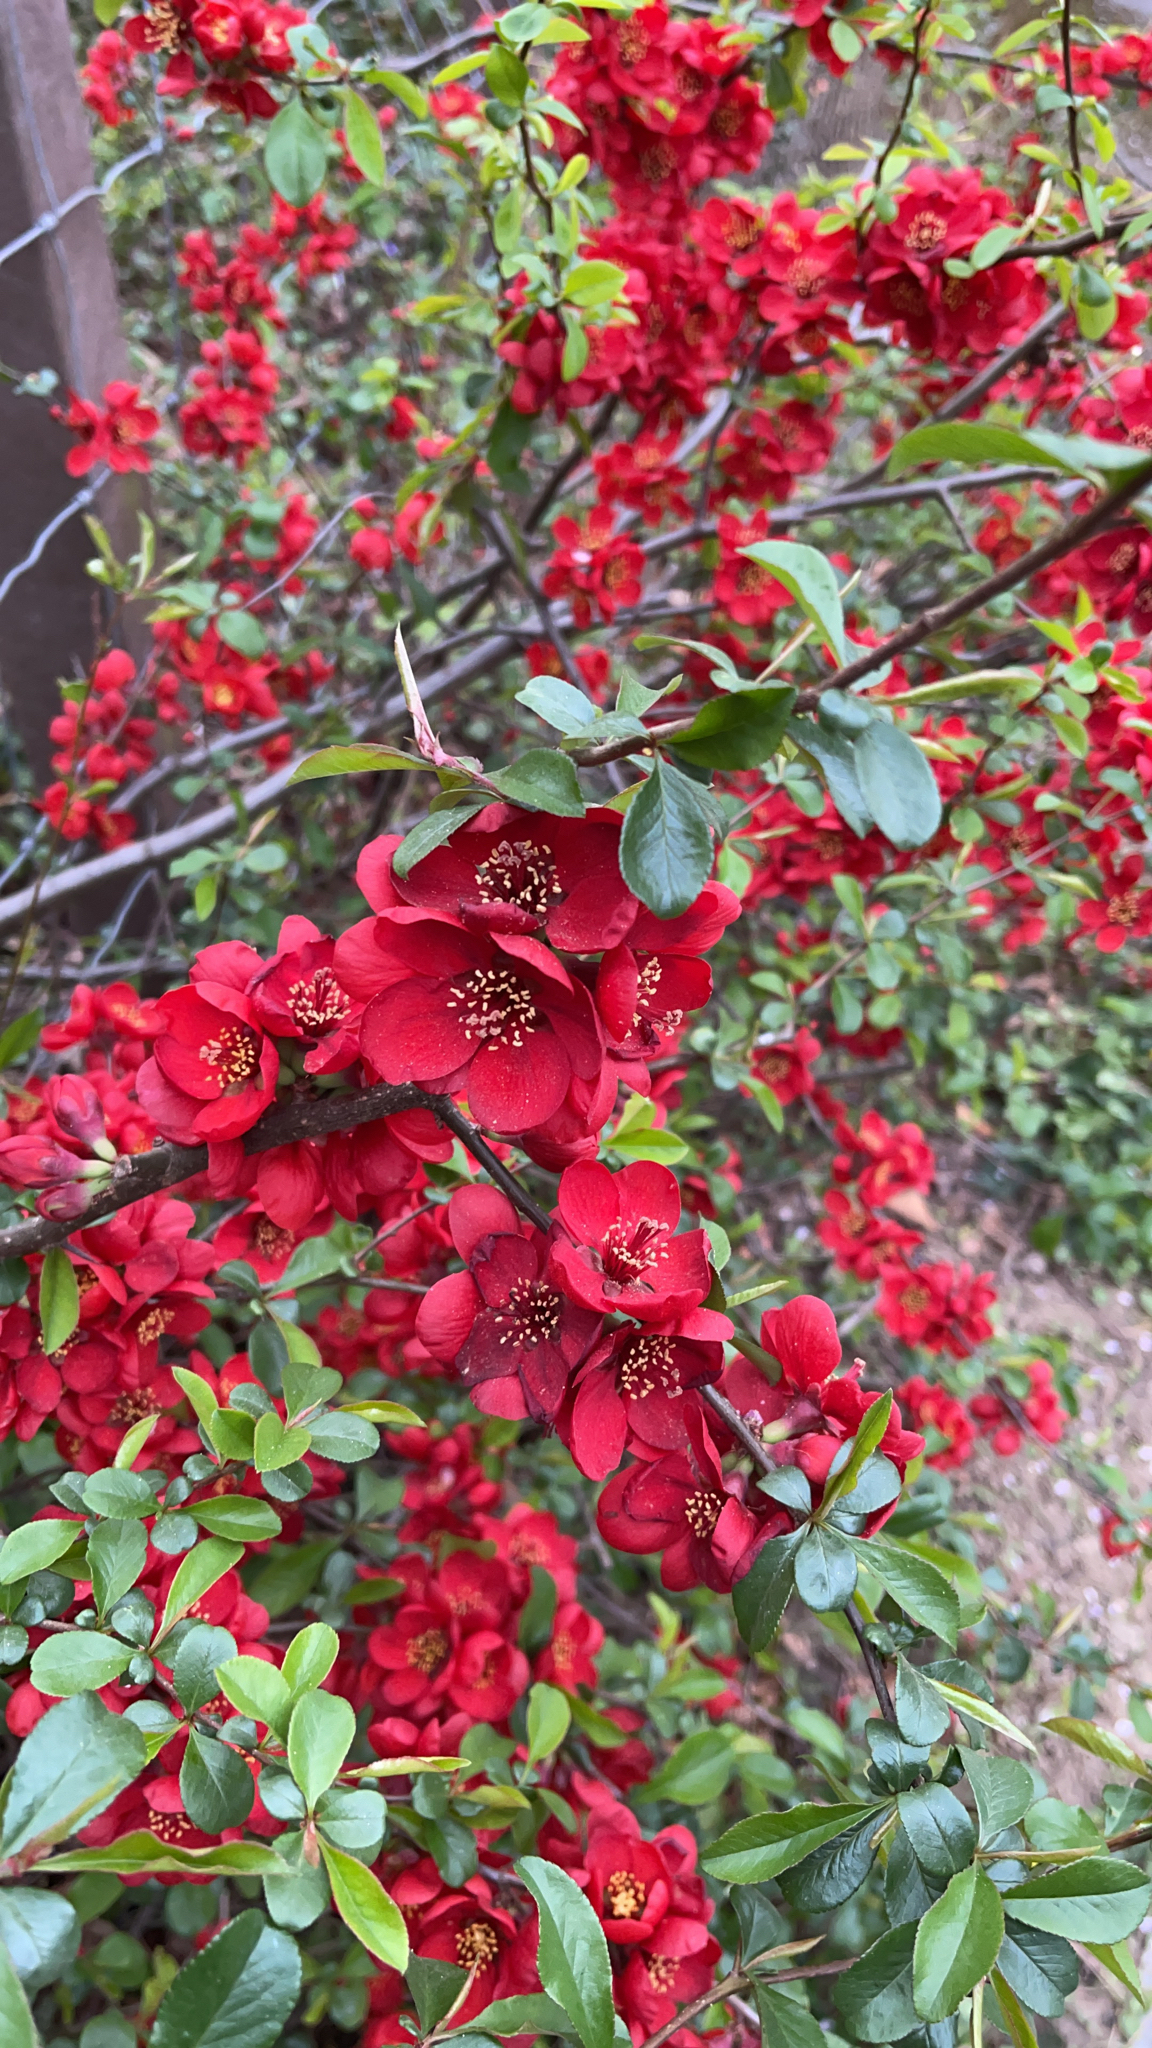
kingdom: Plantae
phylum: Tracheophyta
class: Magnoliopsida
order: Rosales
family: Rosaceae
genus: Chaenomeles
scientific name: Chaenomeles speciosa
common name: Japanese quince
